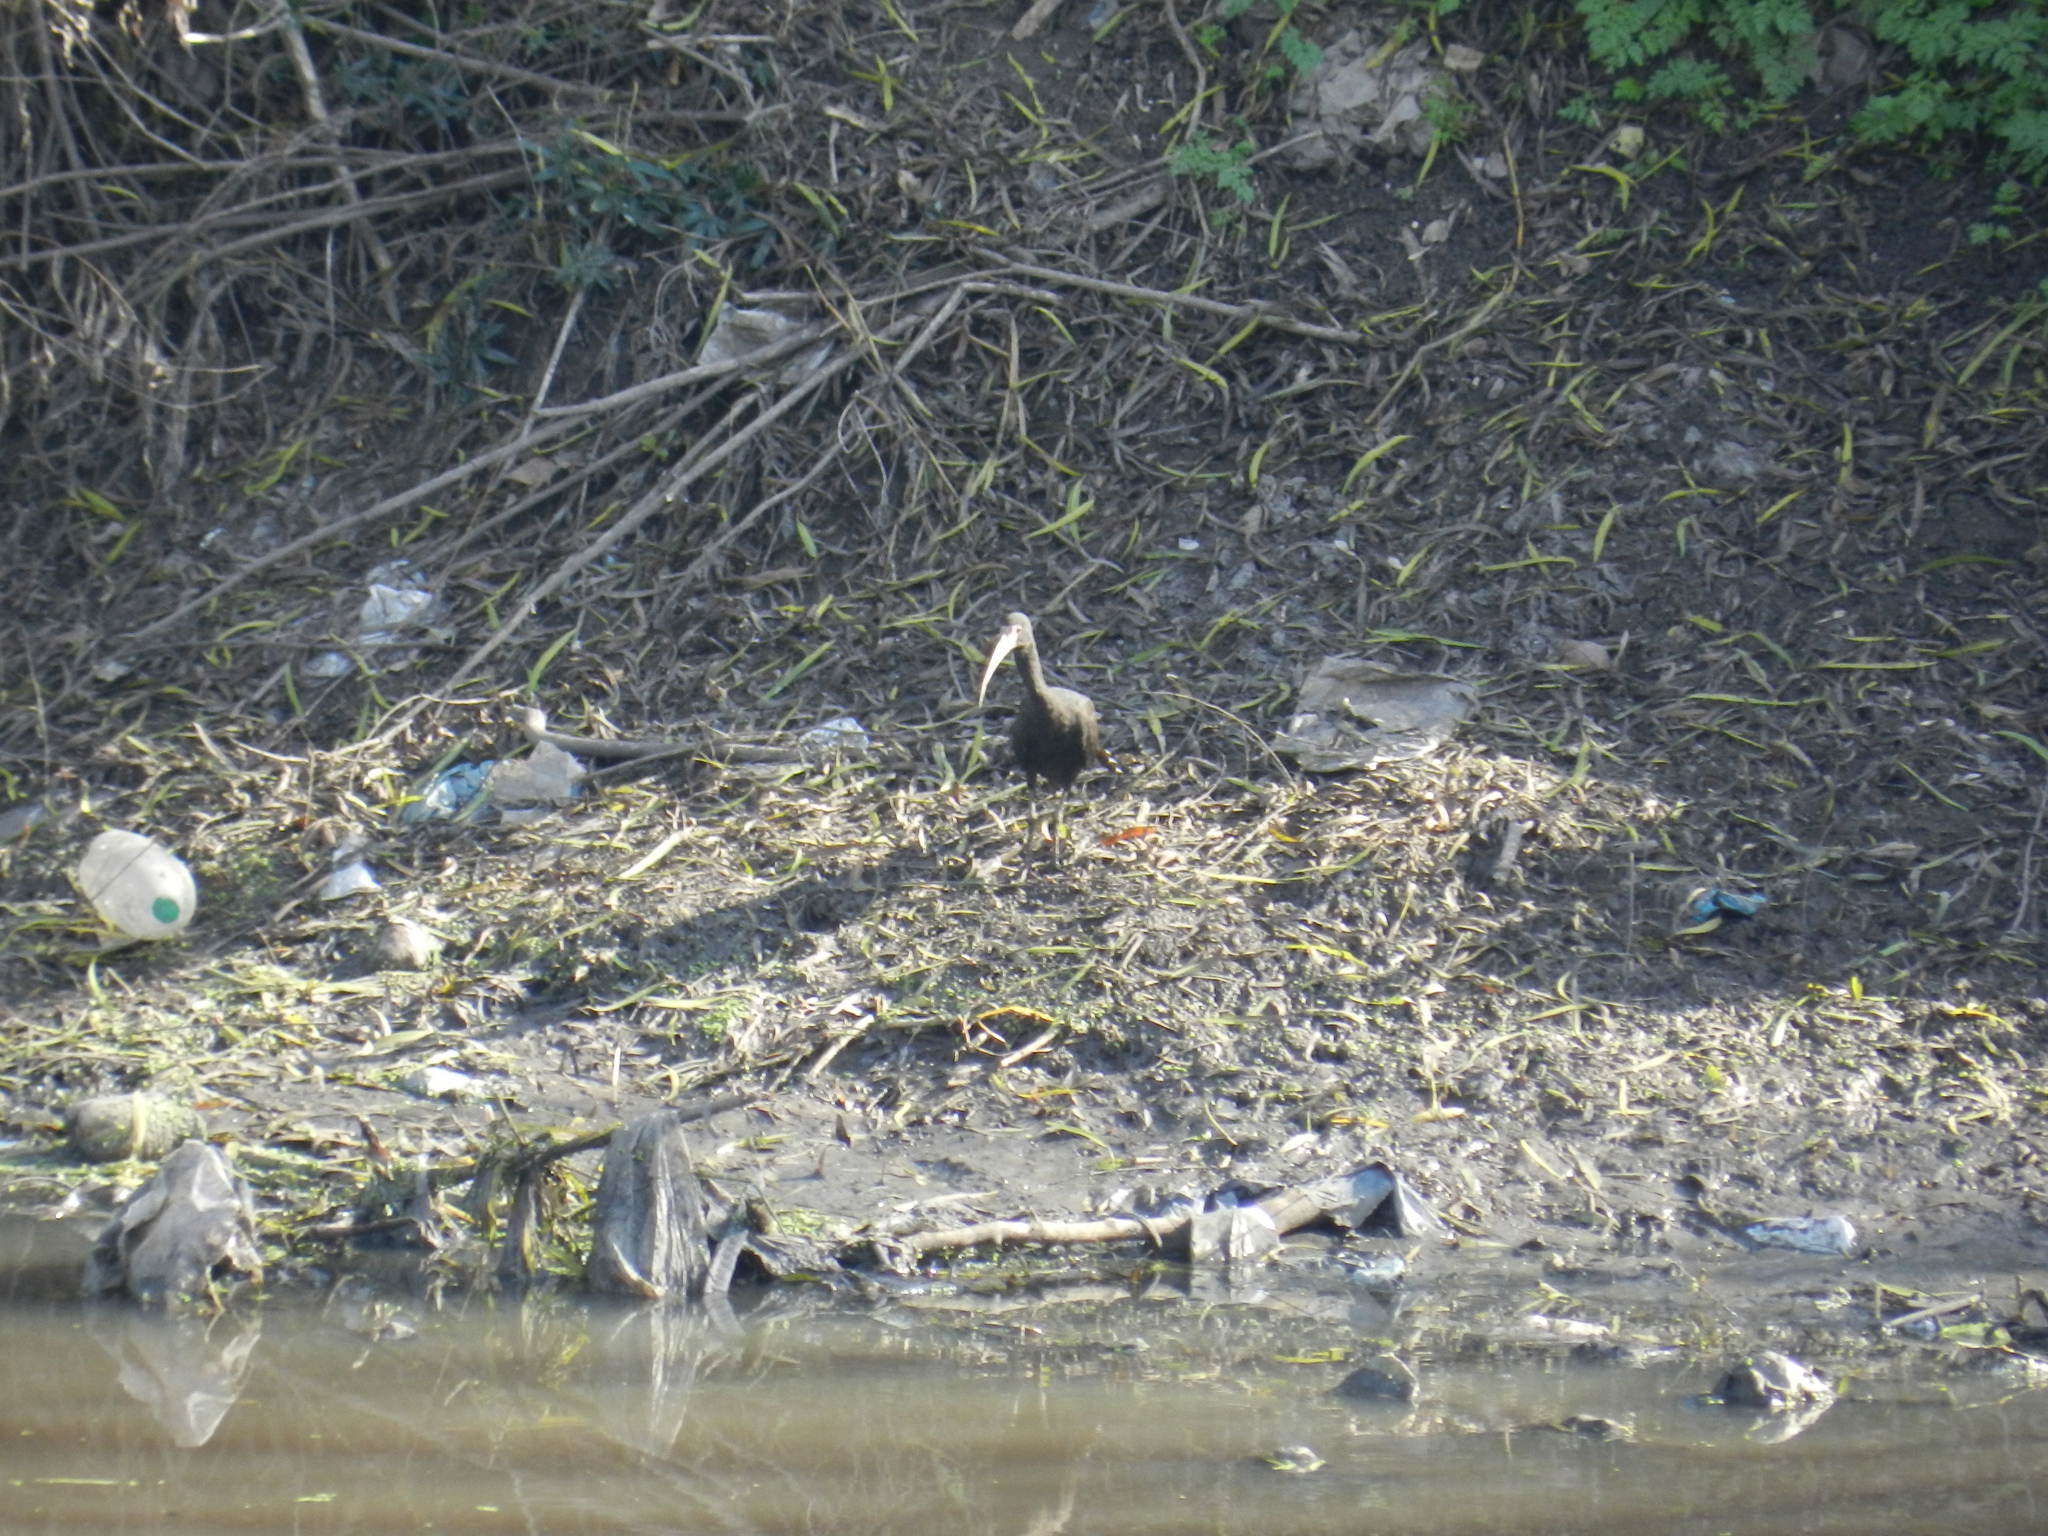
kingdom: Animalia
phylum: Chordata
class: Aves
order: Pelecaniformes
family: Threskiornithidae
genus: Phimosus
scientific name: Phimosus infuscatus
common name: Bare-faced ibis
